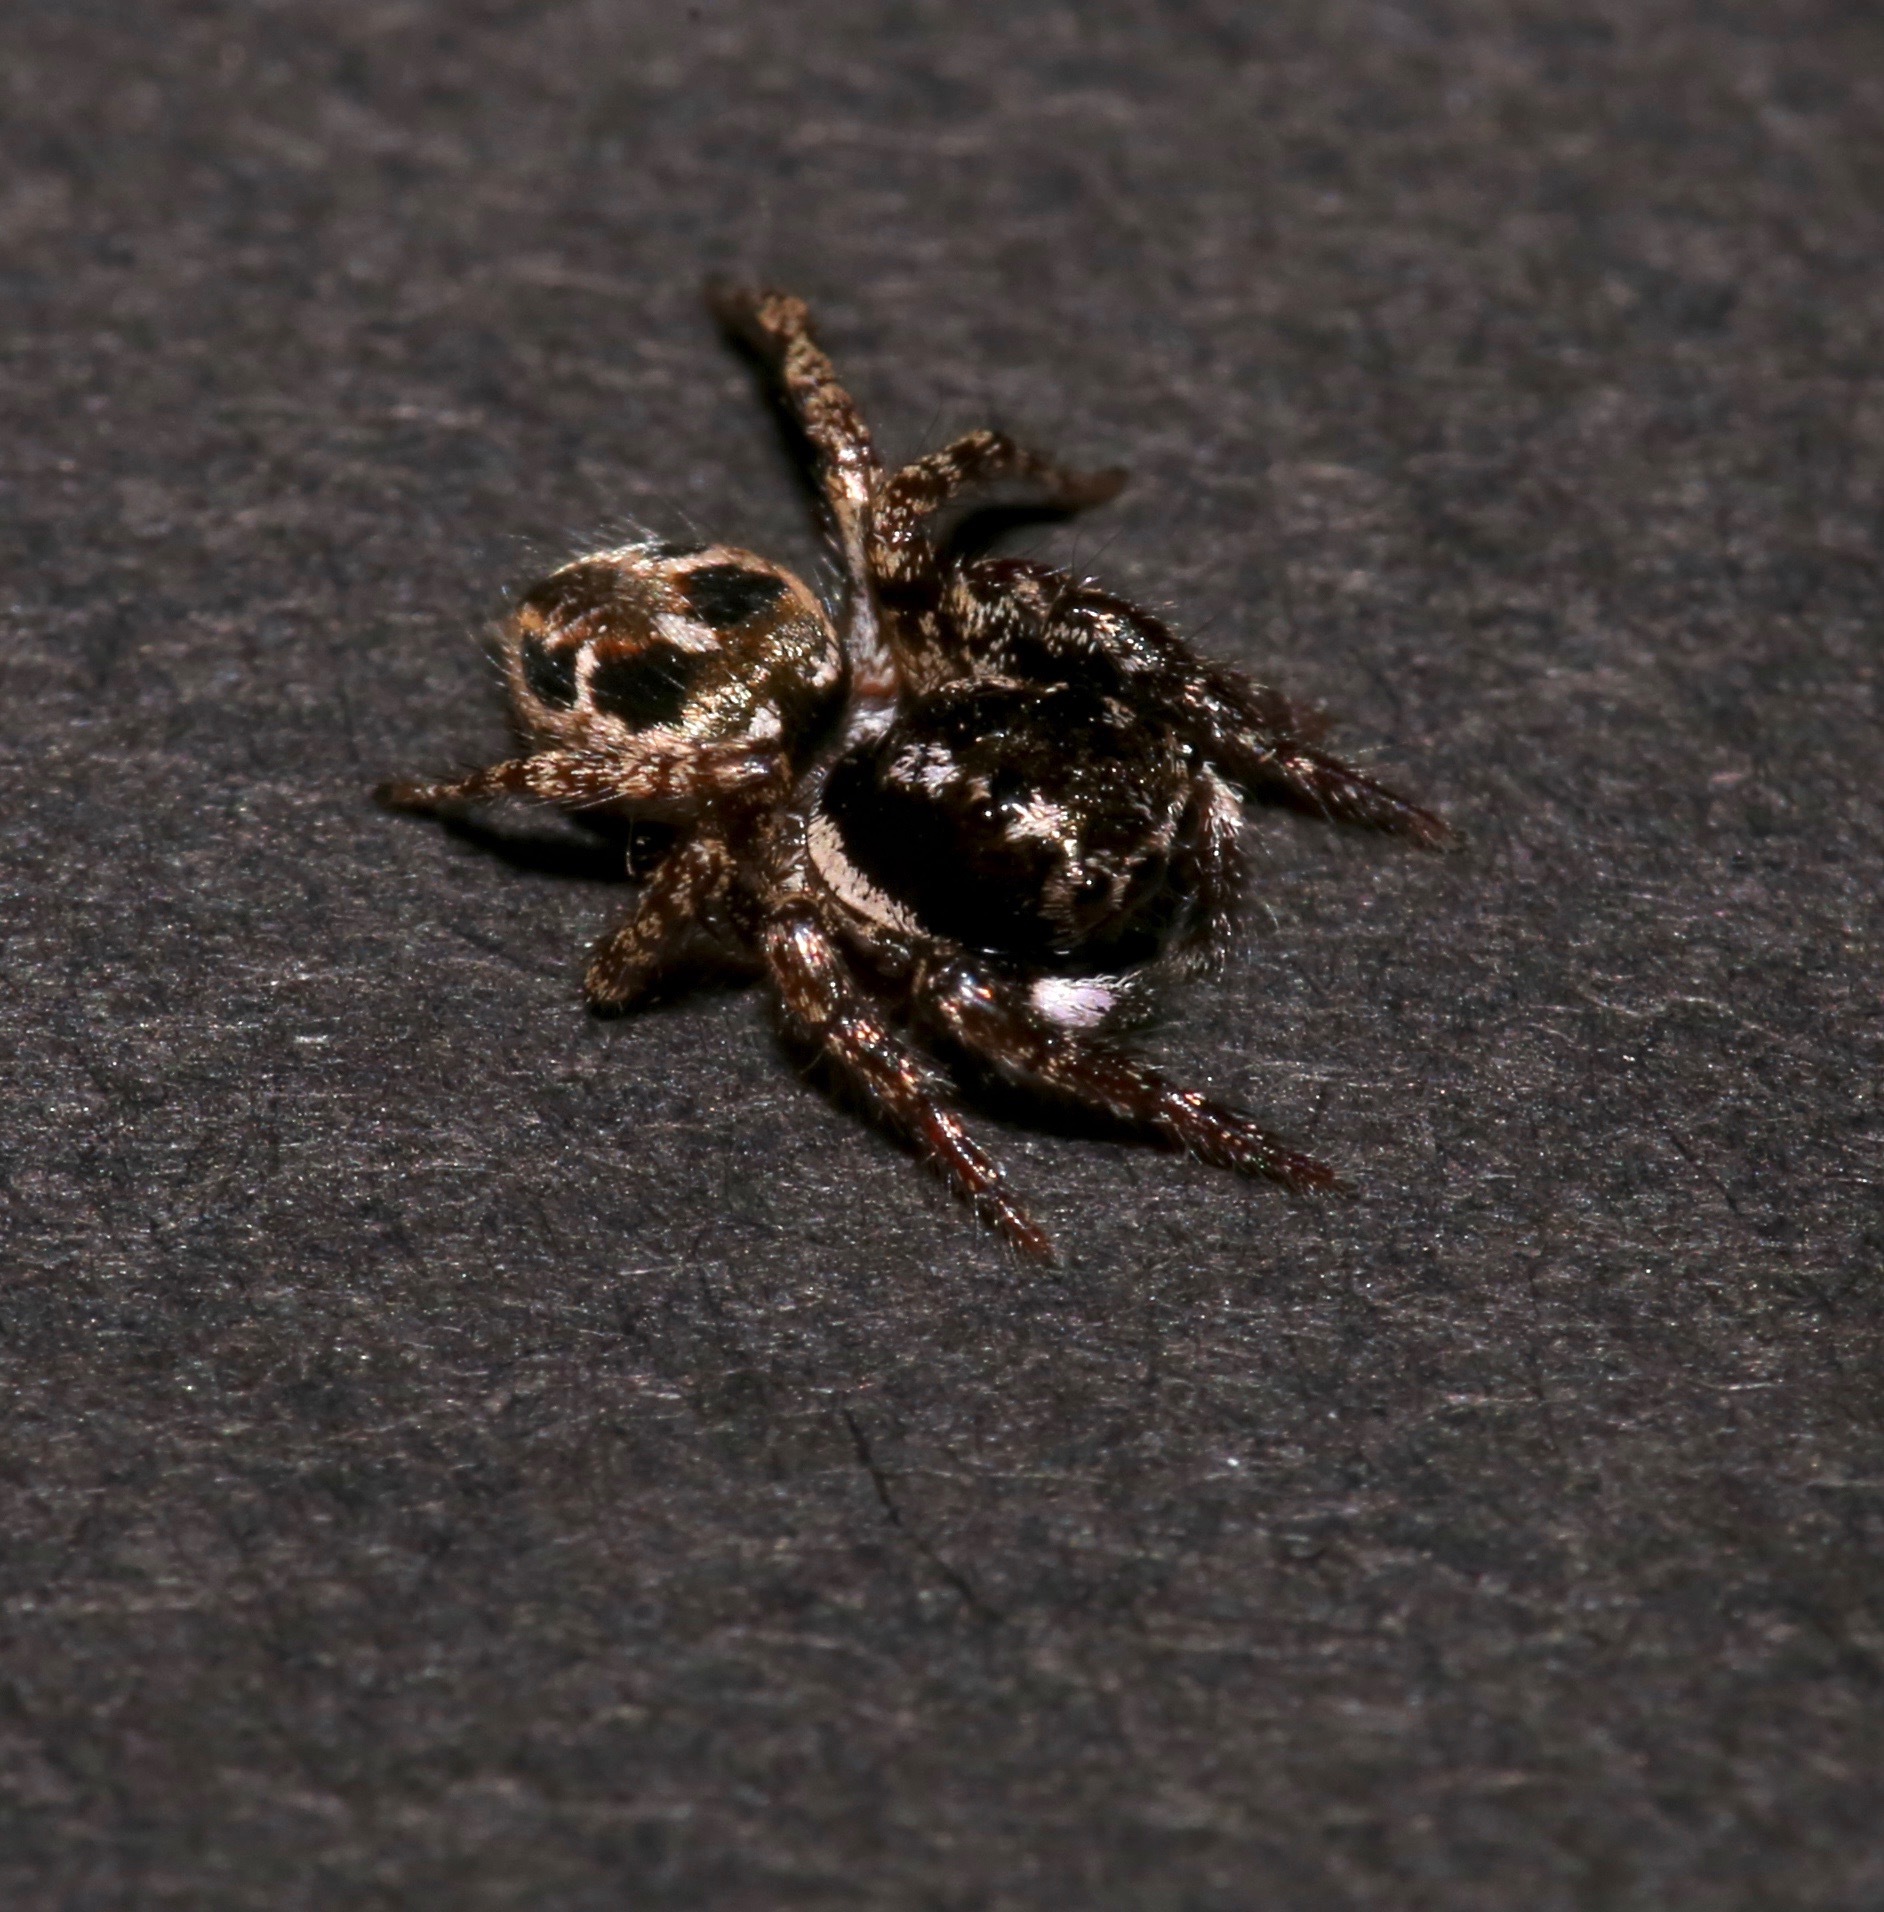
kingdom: Animalia
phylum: Arthropoda
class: Arachnida
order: Araneae
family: Salticidae
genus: Anasaitis
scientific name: Anasaitis canosa
